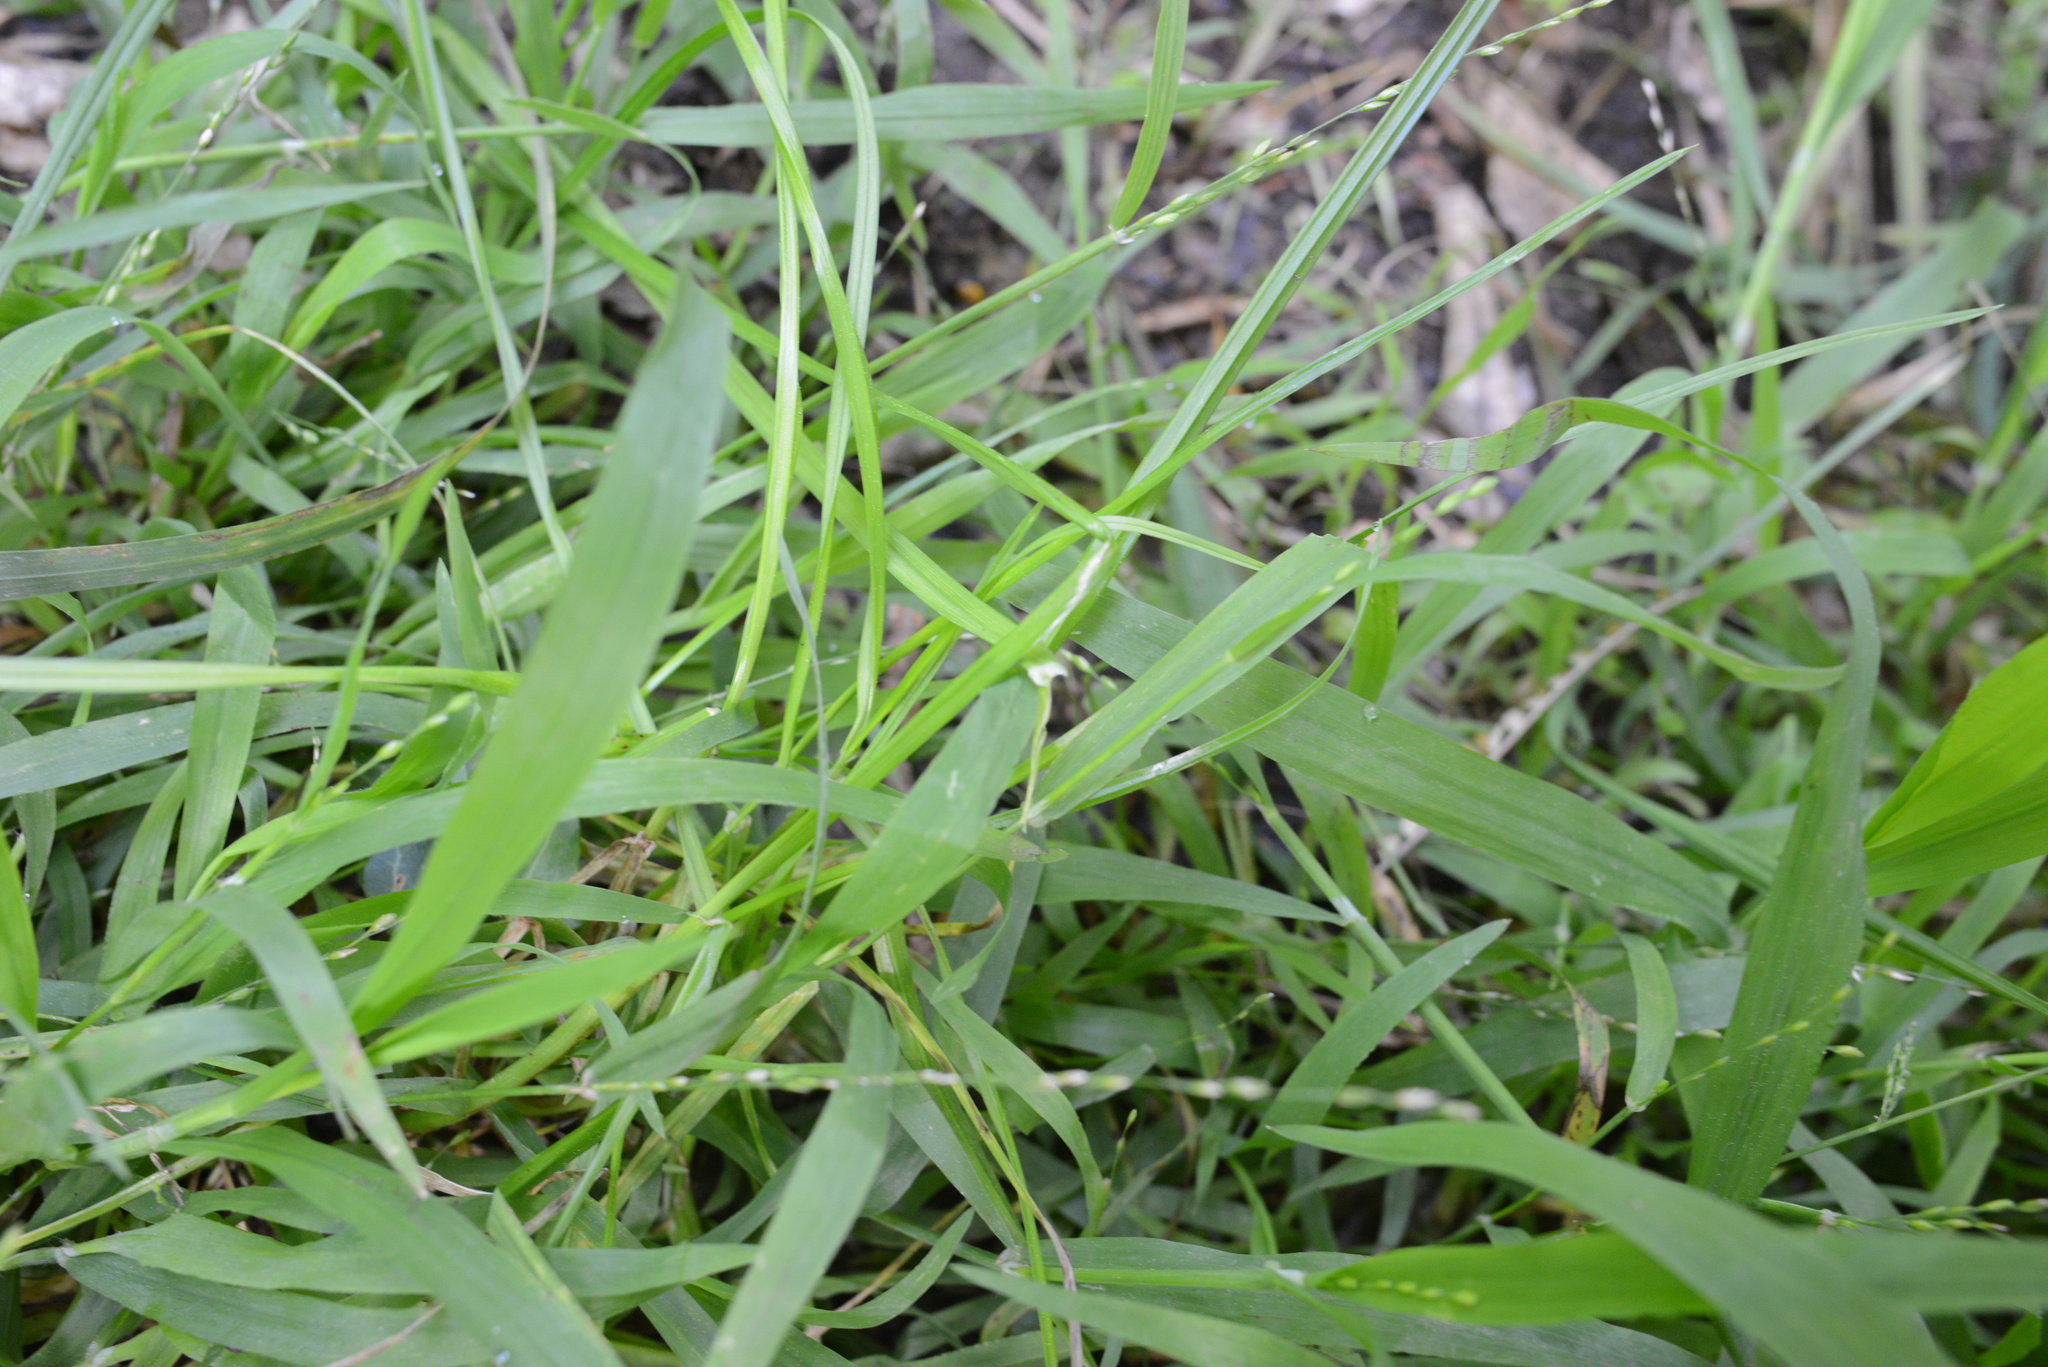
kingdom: Plantae
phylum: Tracheophyta
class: Liliopsida
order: Poales
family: Poaceae
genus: Ehrharta
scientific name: Ehrharta erecta
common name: Panic veldtgrass
